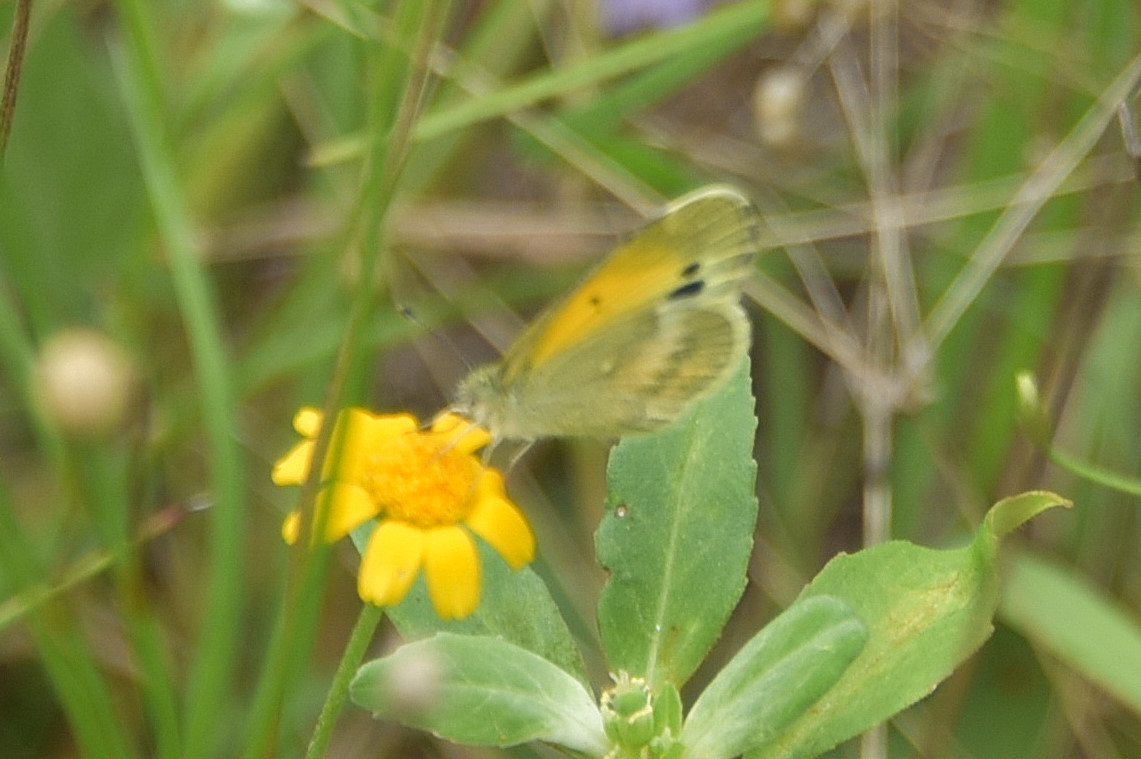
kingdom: Animalia
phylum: Arthropoda
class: Insecta
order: Lepidoptera
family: Pieridae
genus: Nathalis
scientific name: Nathalis iole
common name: Dainty sulphur
